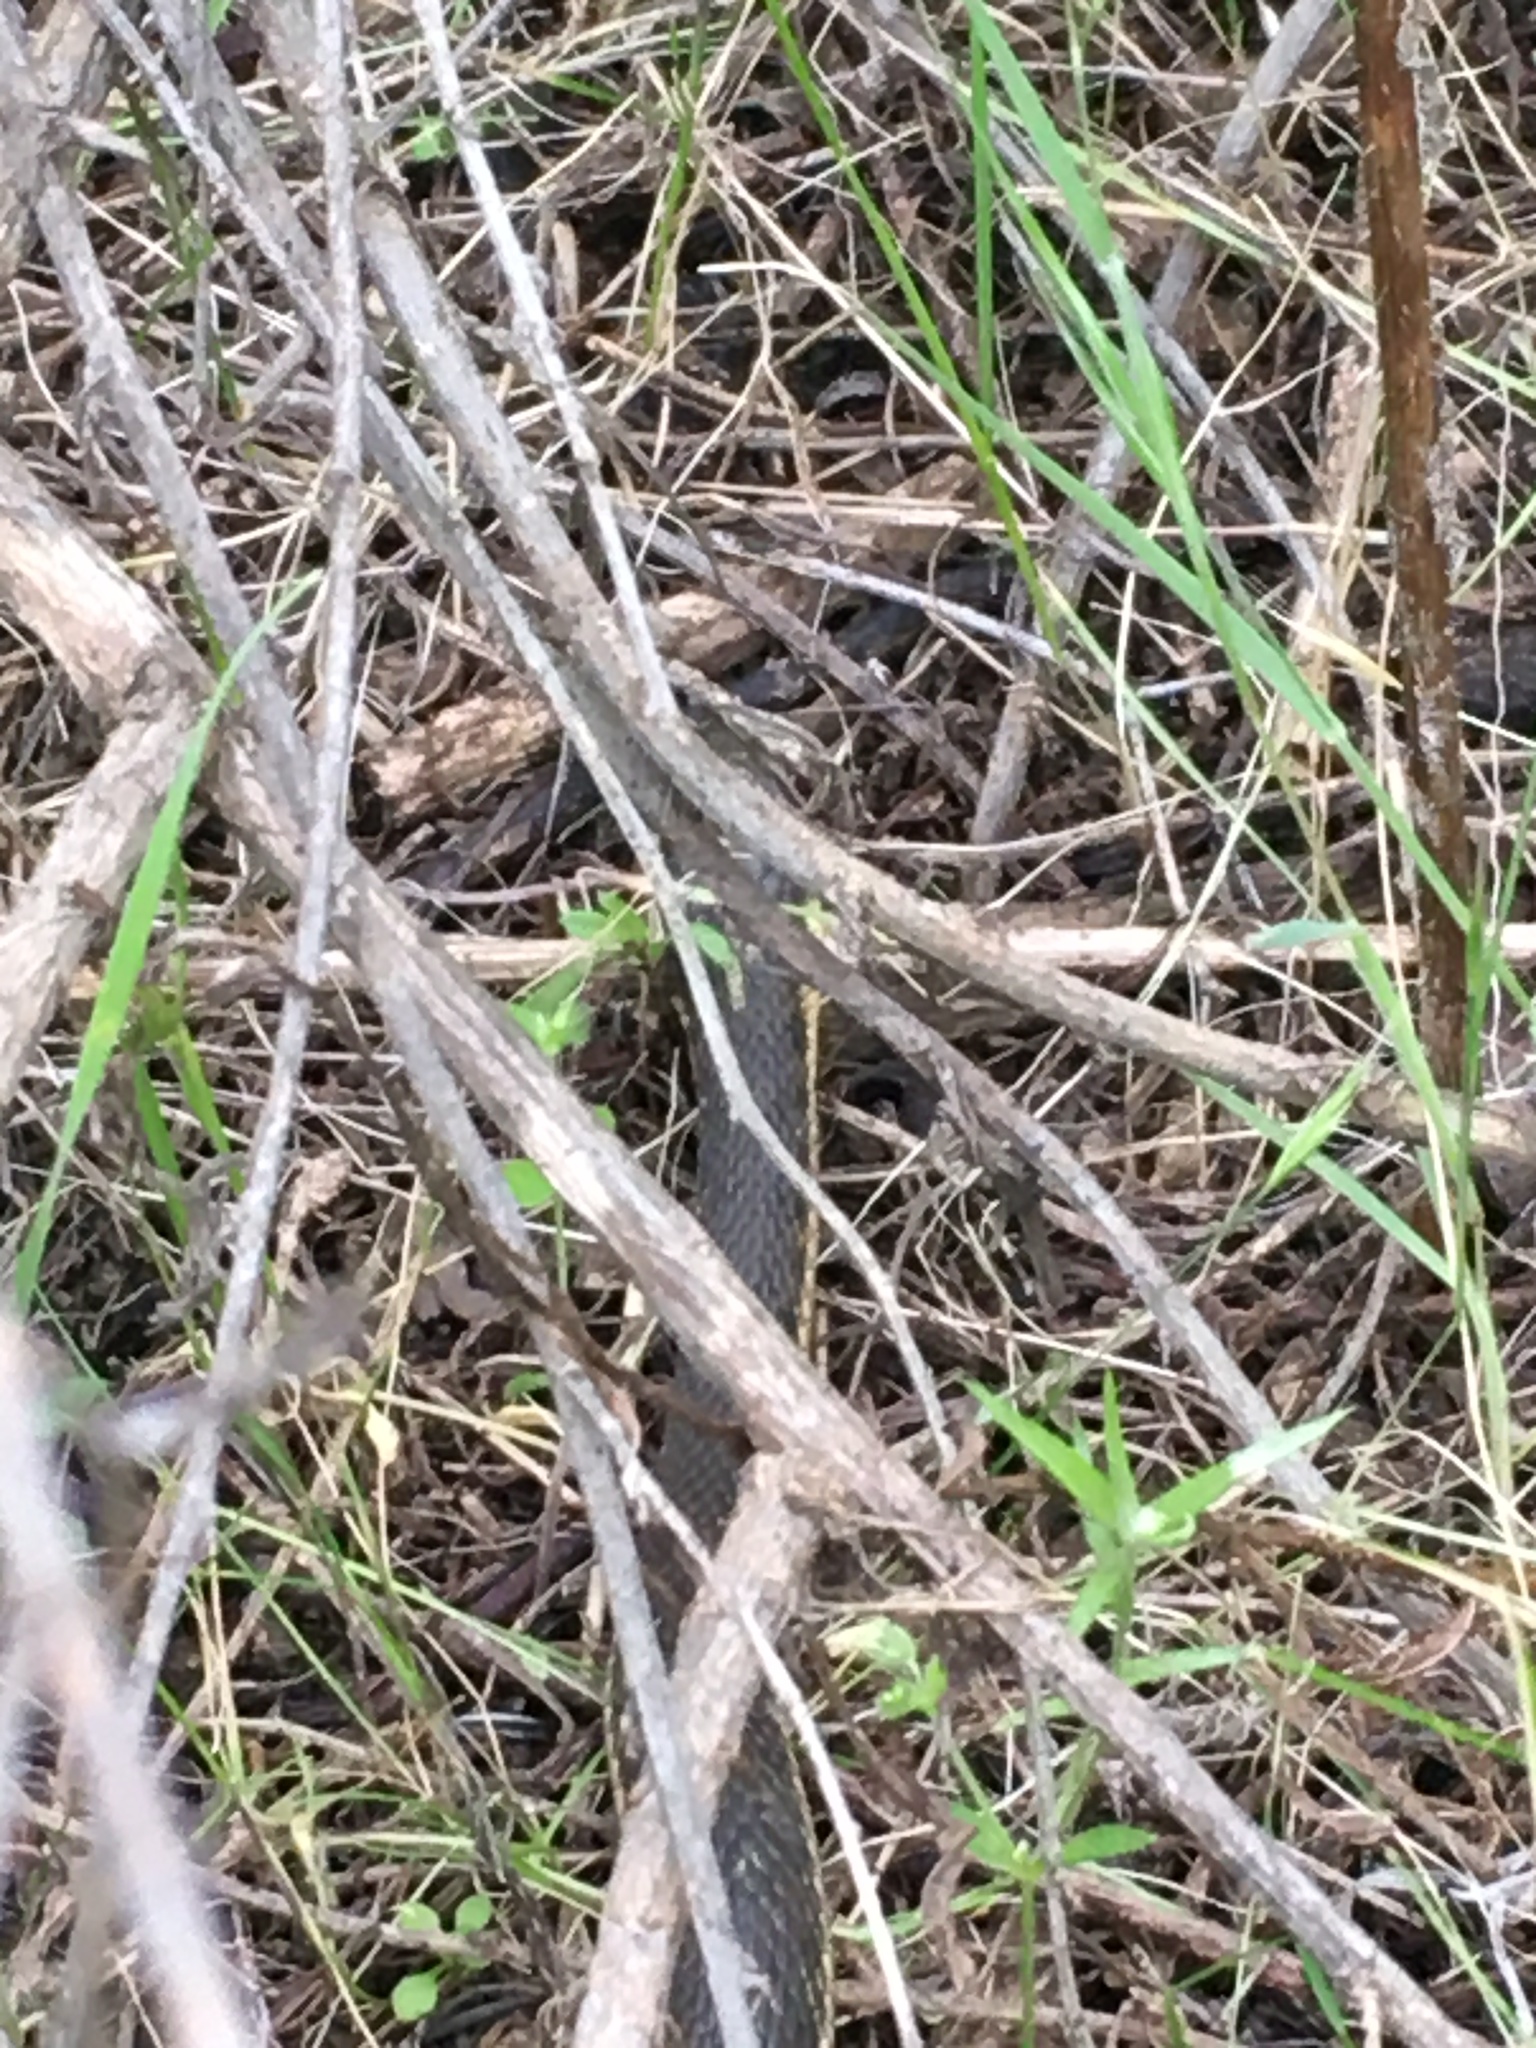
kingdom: Animalia
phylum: Chordata
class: Squamata
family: Colubridae
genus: Thamnophis
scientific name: Thamnophis hammondii
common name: Two-striped garter snake
